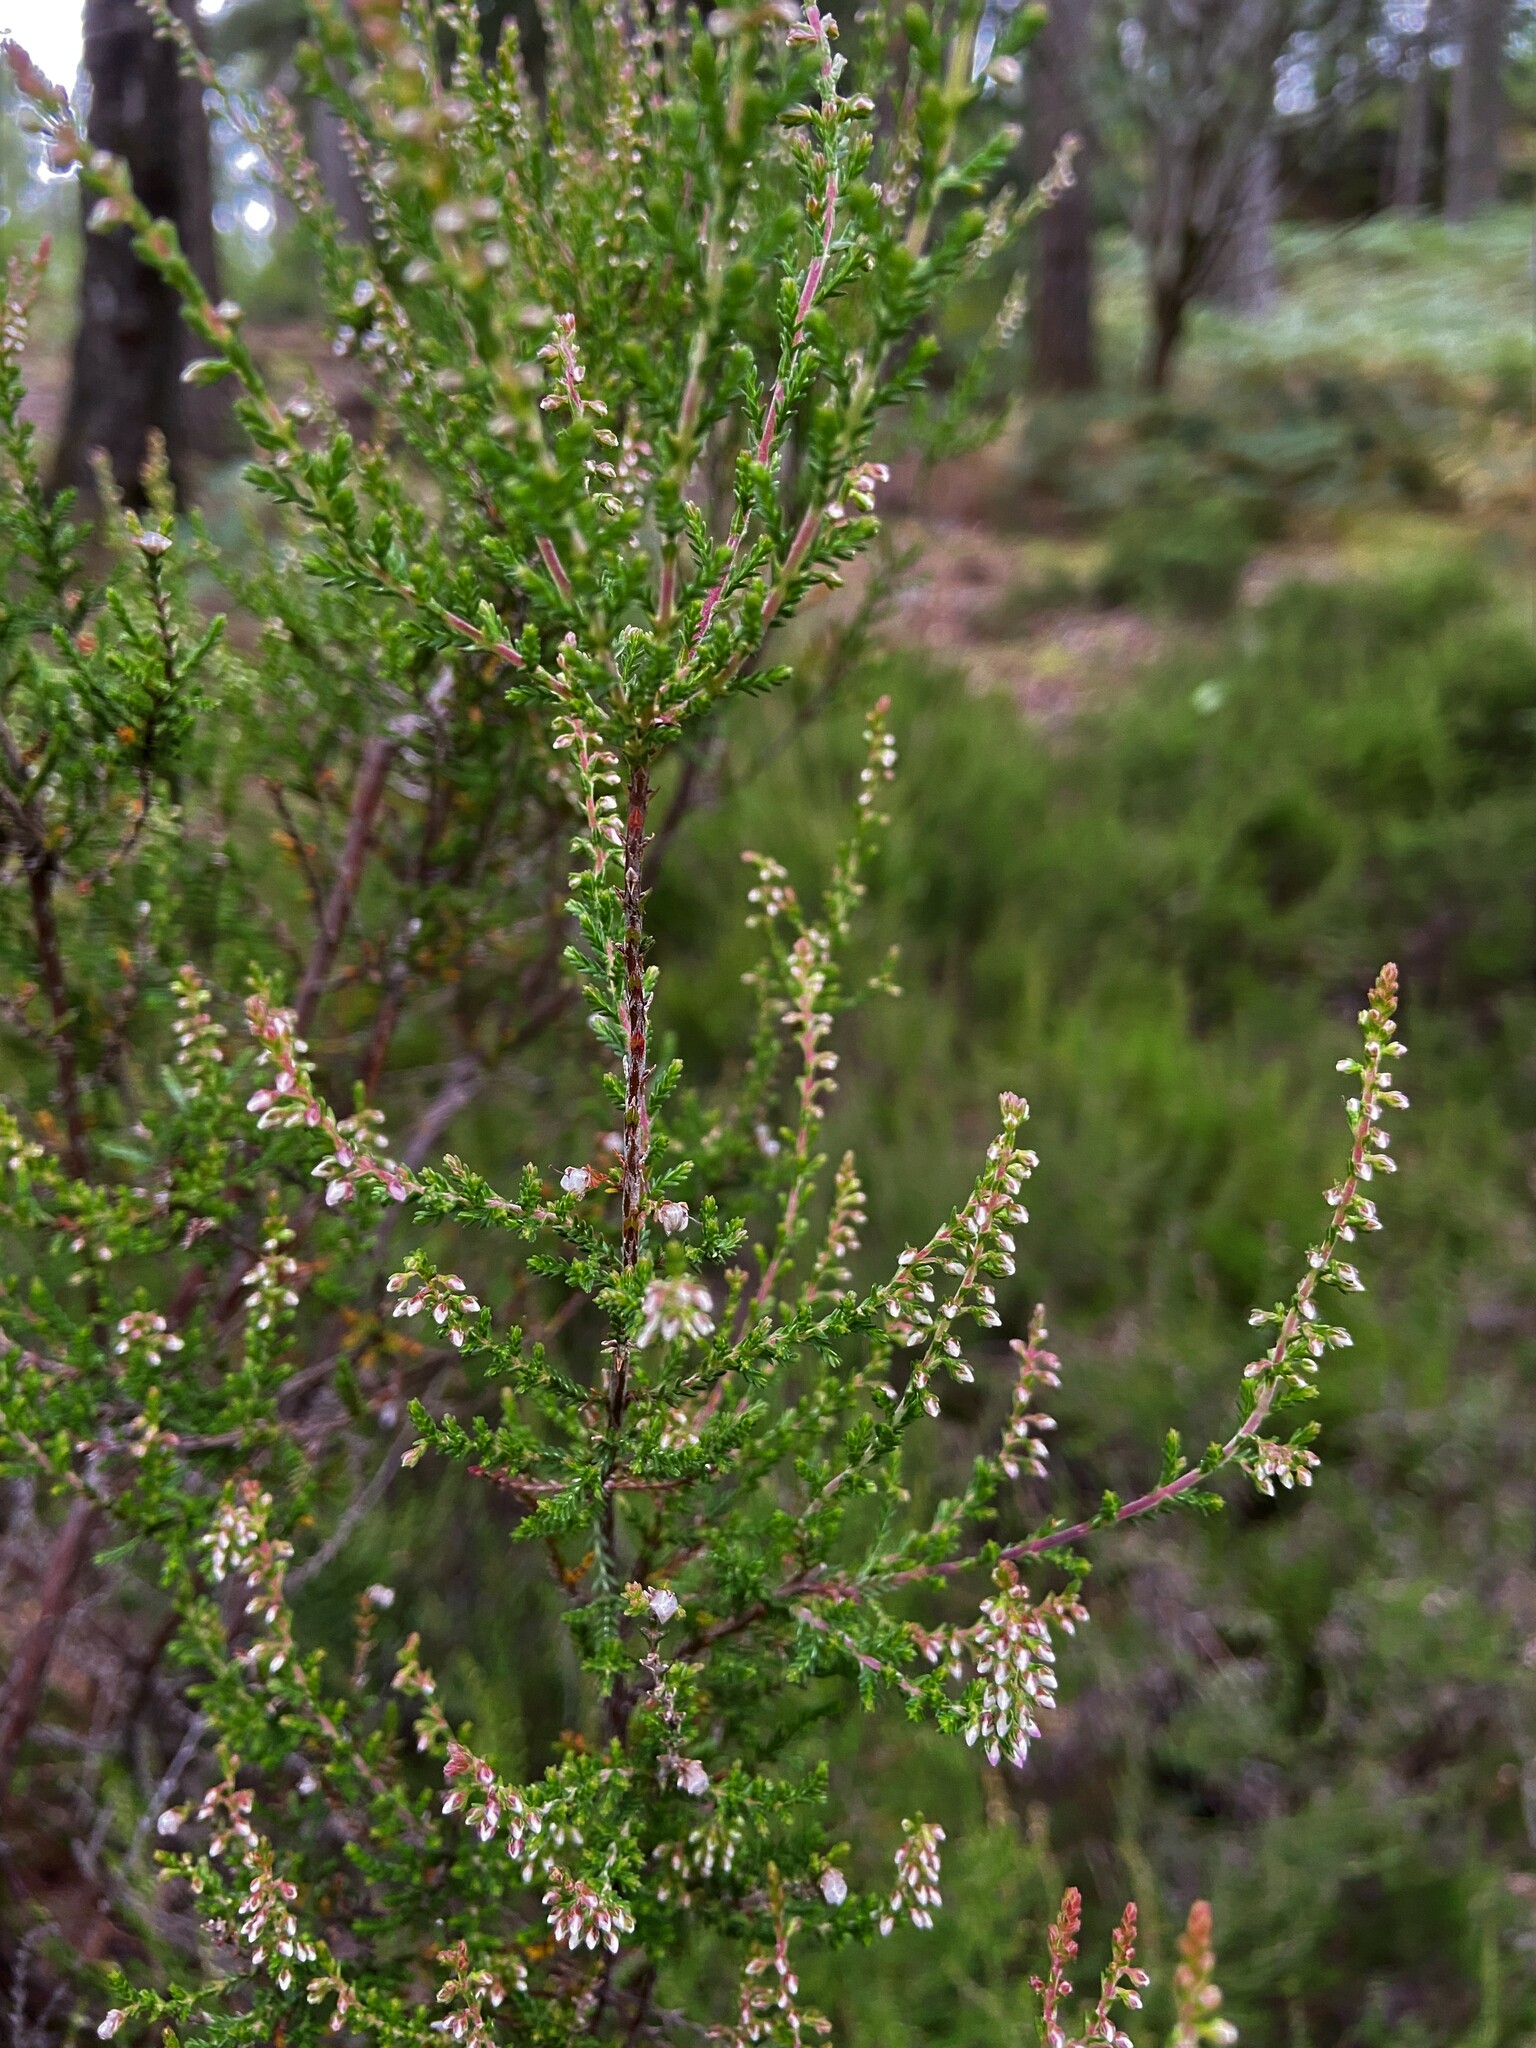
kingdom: Plantae
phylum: Tracheophyta
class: Magnoliopsida
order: Ericales
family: Ericaceae
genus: Calluna
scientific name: Calluna vulgaris
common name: Heather
